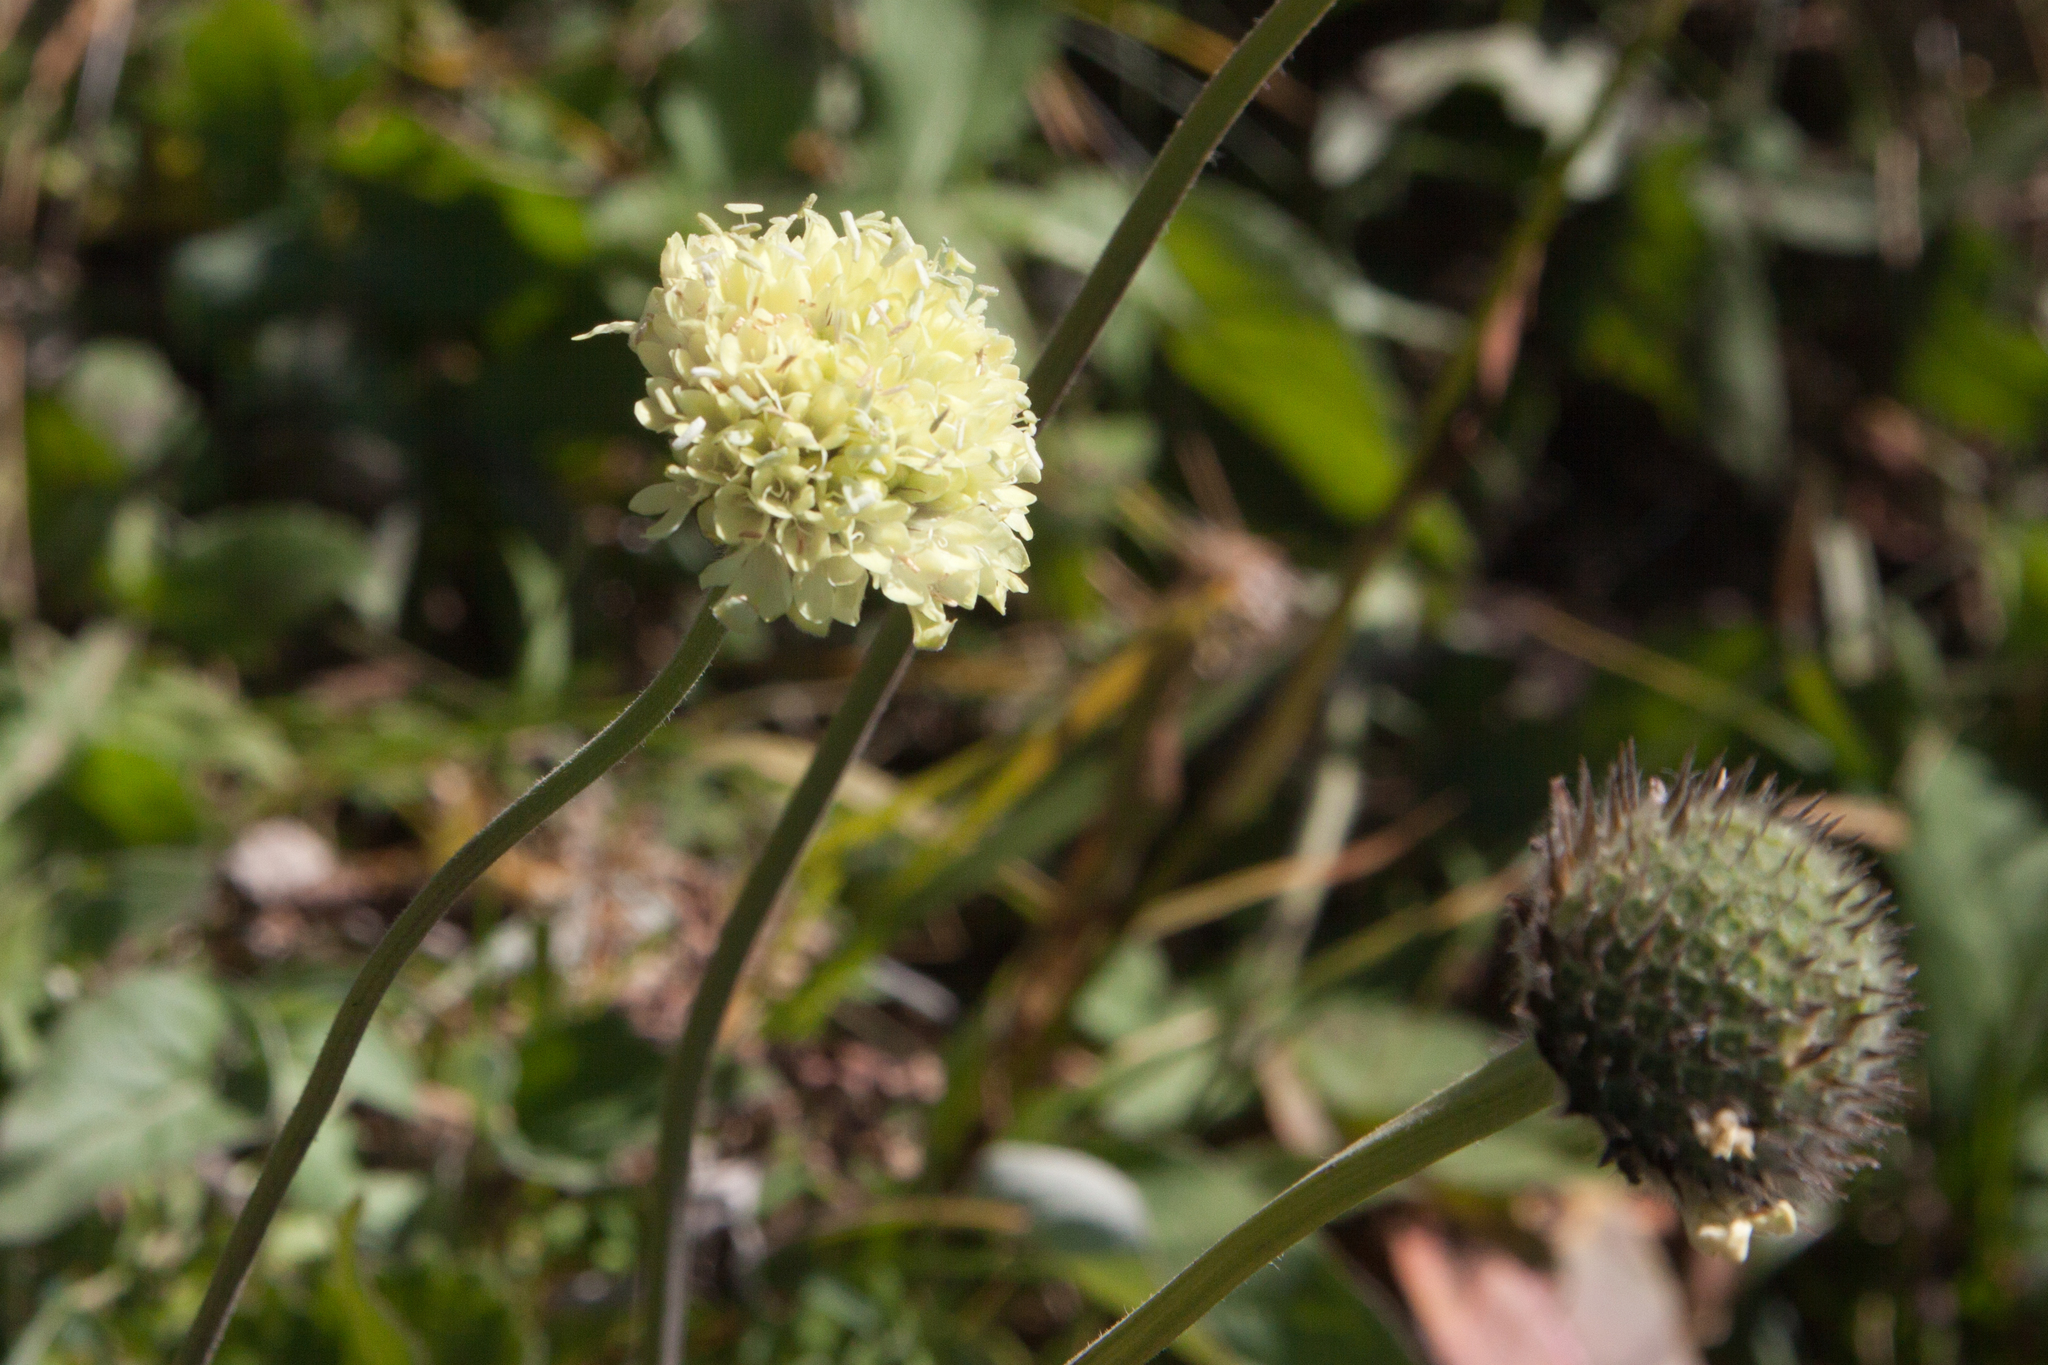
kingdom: Plantae
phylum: Tracheophyta
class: Magnoliopsida
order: Dipsacales
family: Caprifoliaceae
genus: Cephalaria
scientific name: Cephalaria gigantea
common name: Tatarian cephalaria
